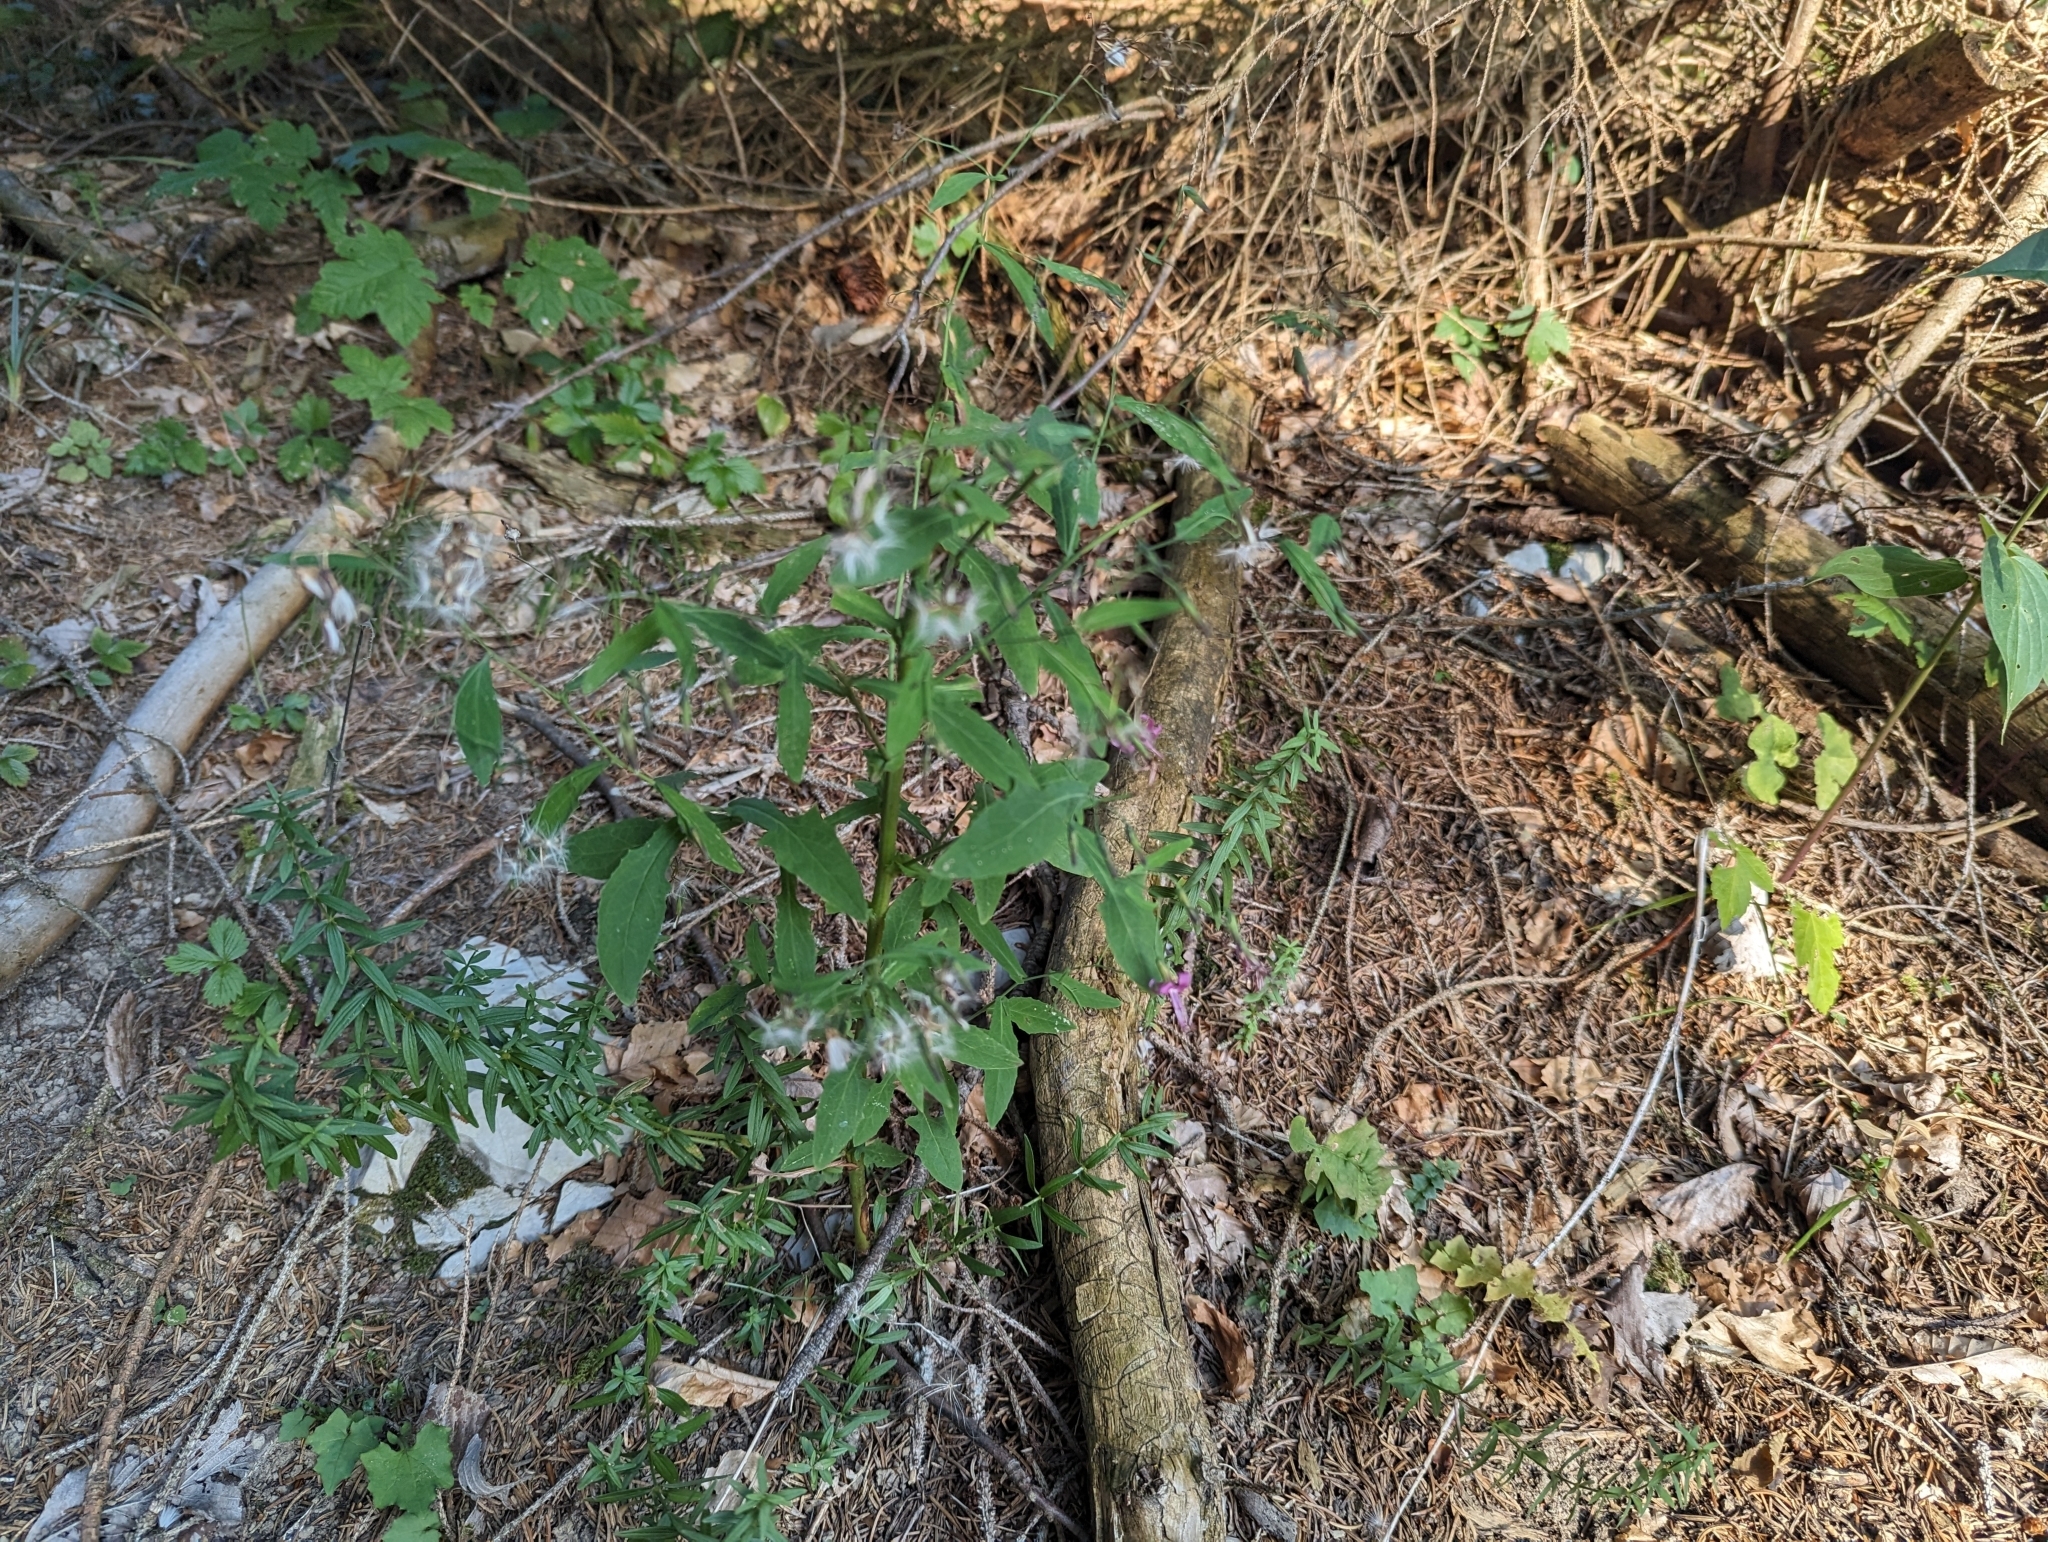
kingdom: Plantae
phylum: Tracheophyta
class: Magnoliopsida
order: Asterales
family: Asteraceae
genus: Prenanthes
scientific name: Prenanthes purpurea
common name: Purple lettuce
